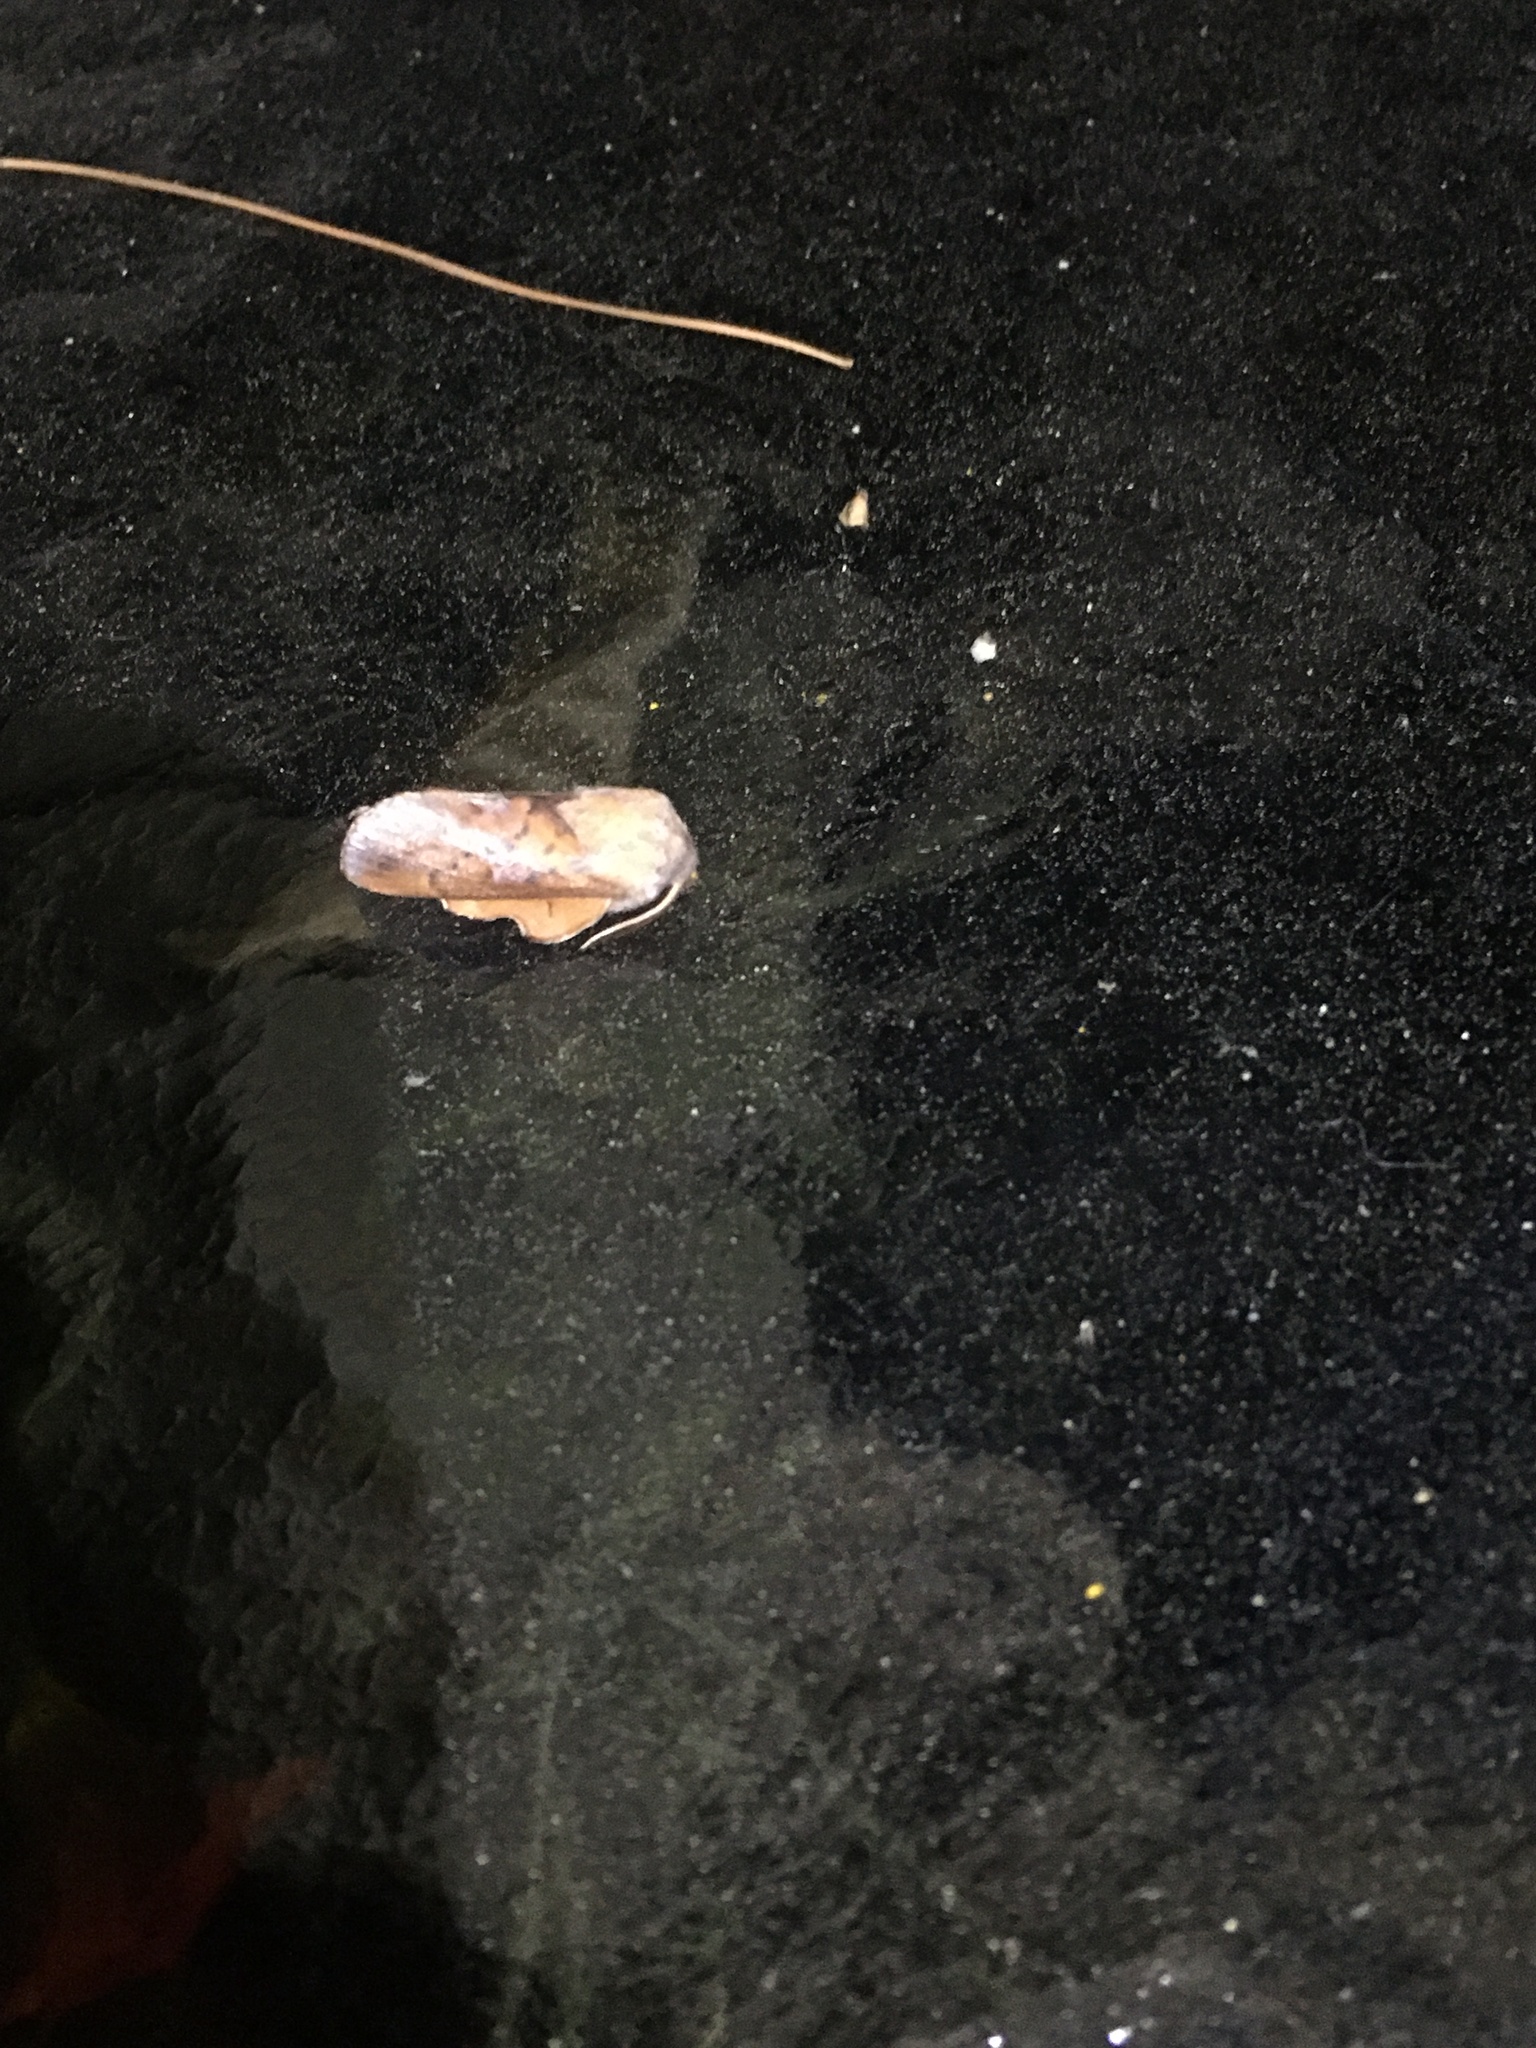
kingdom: Animalia
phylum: Arthropoda
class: Insecta
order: Lepidoptera
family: Lasiocampidae
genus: Phyllodesma
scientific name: Phyllodesma americana
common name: American lappet moth
